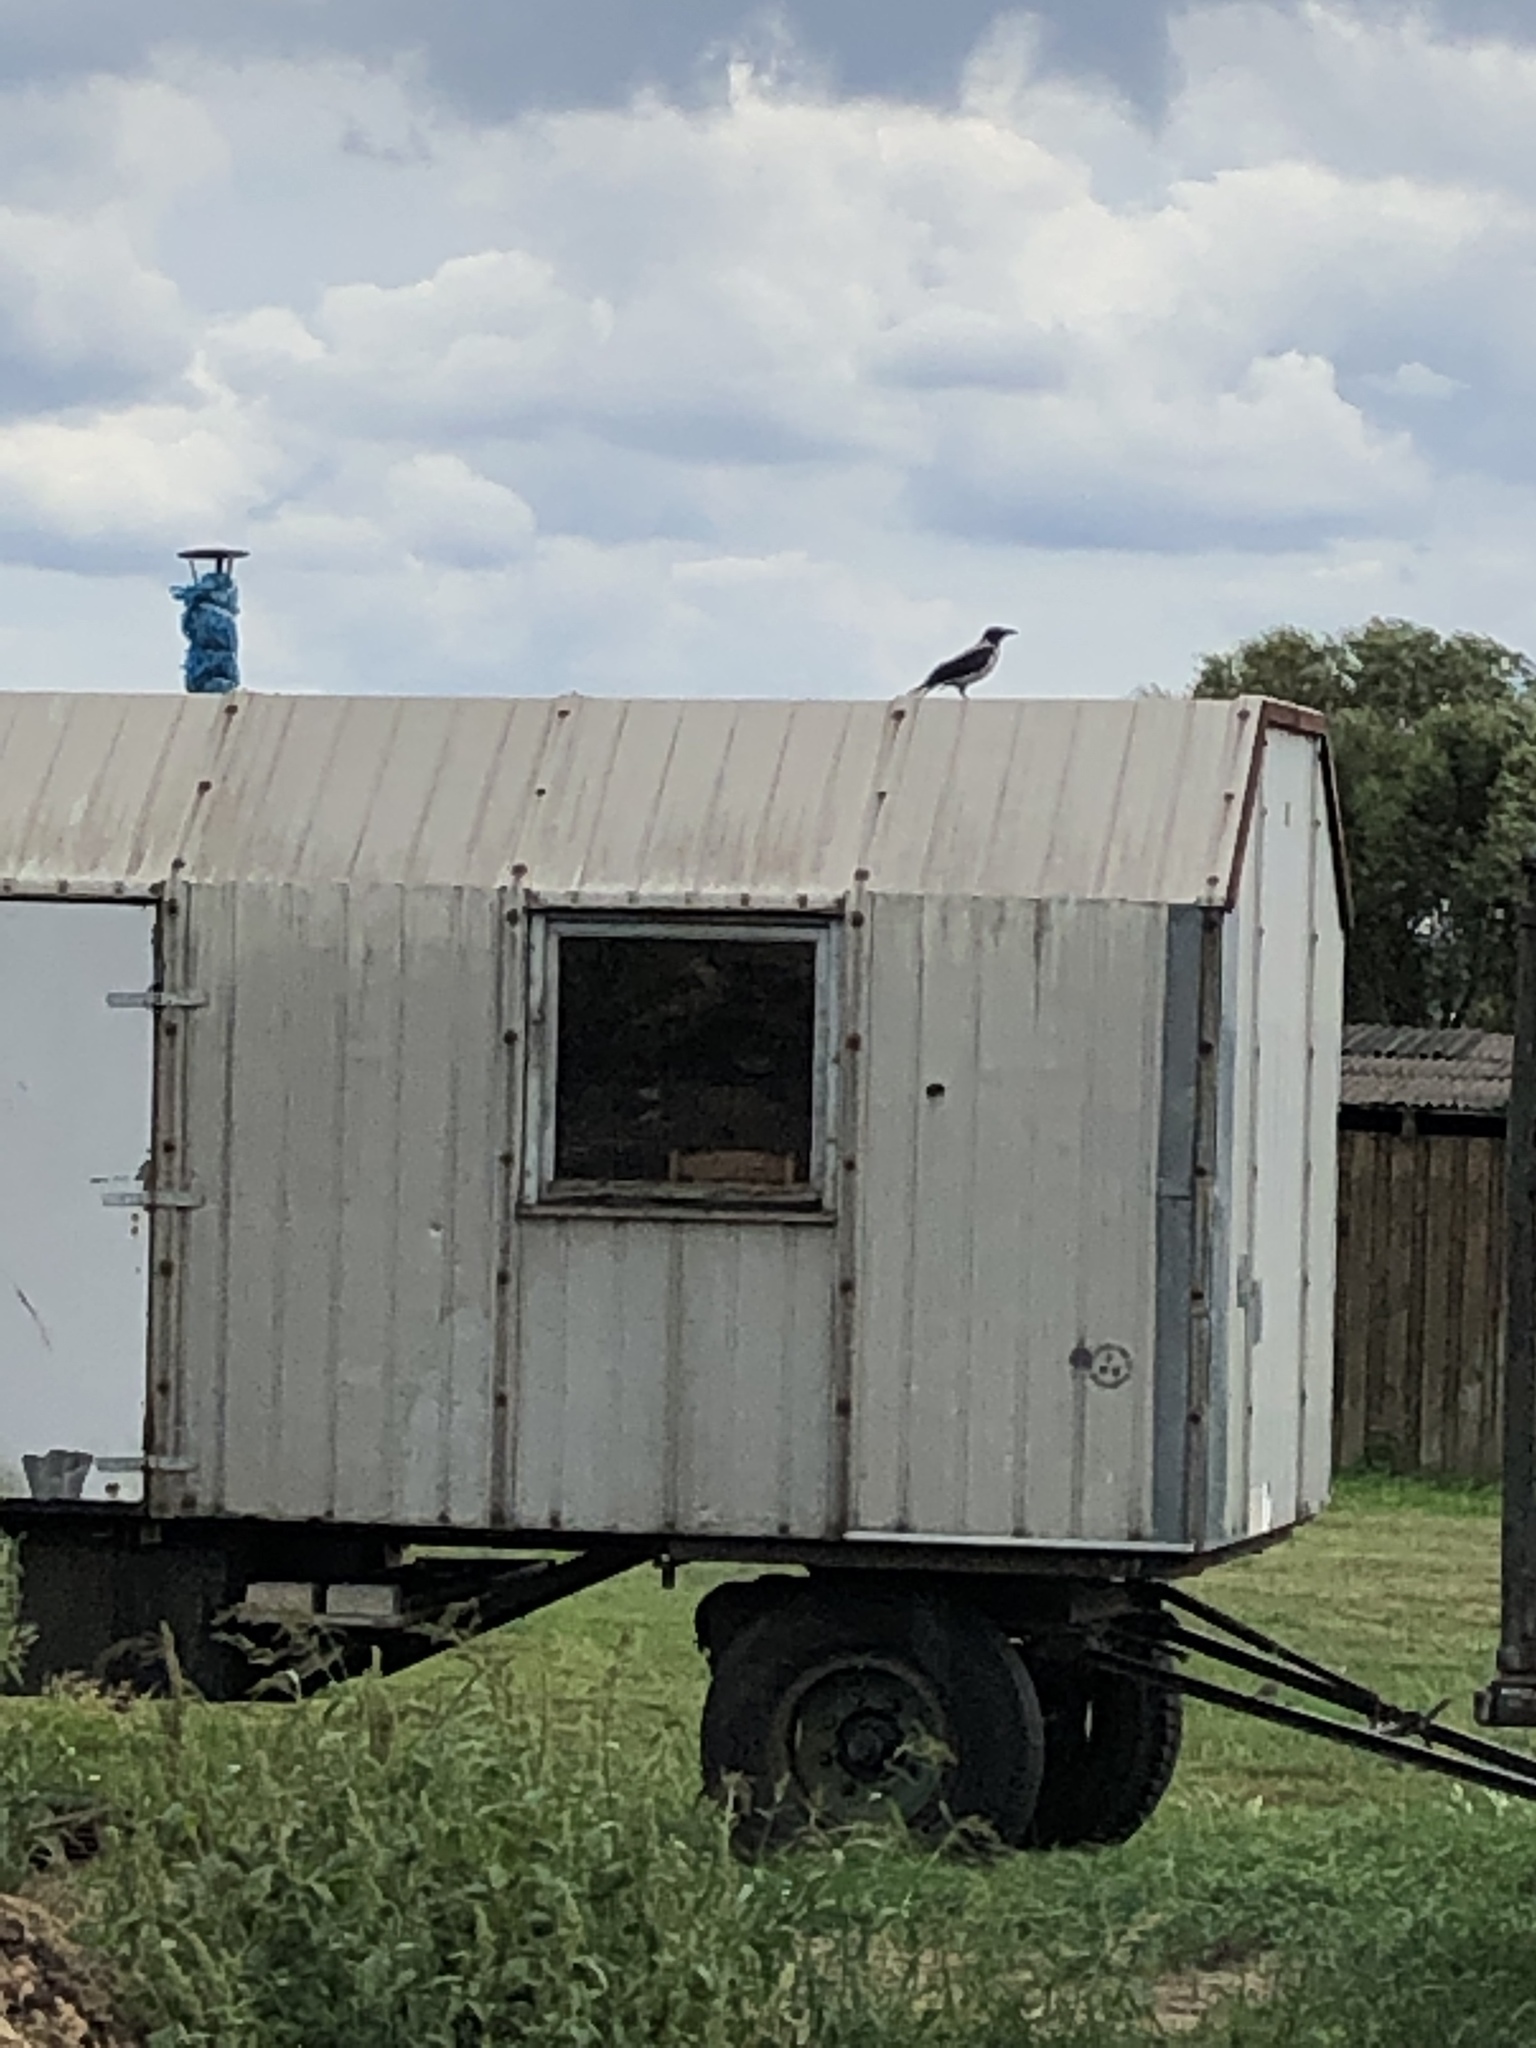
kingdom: Animalia
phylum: Chordata
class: Aves
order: Passeriformes
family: Corvidae
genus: Corvus
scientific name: Corvus cornix
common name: Hooded crow
